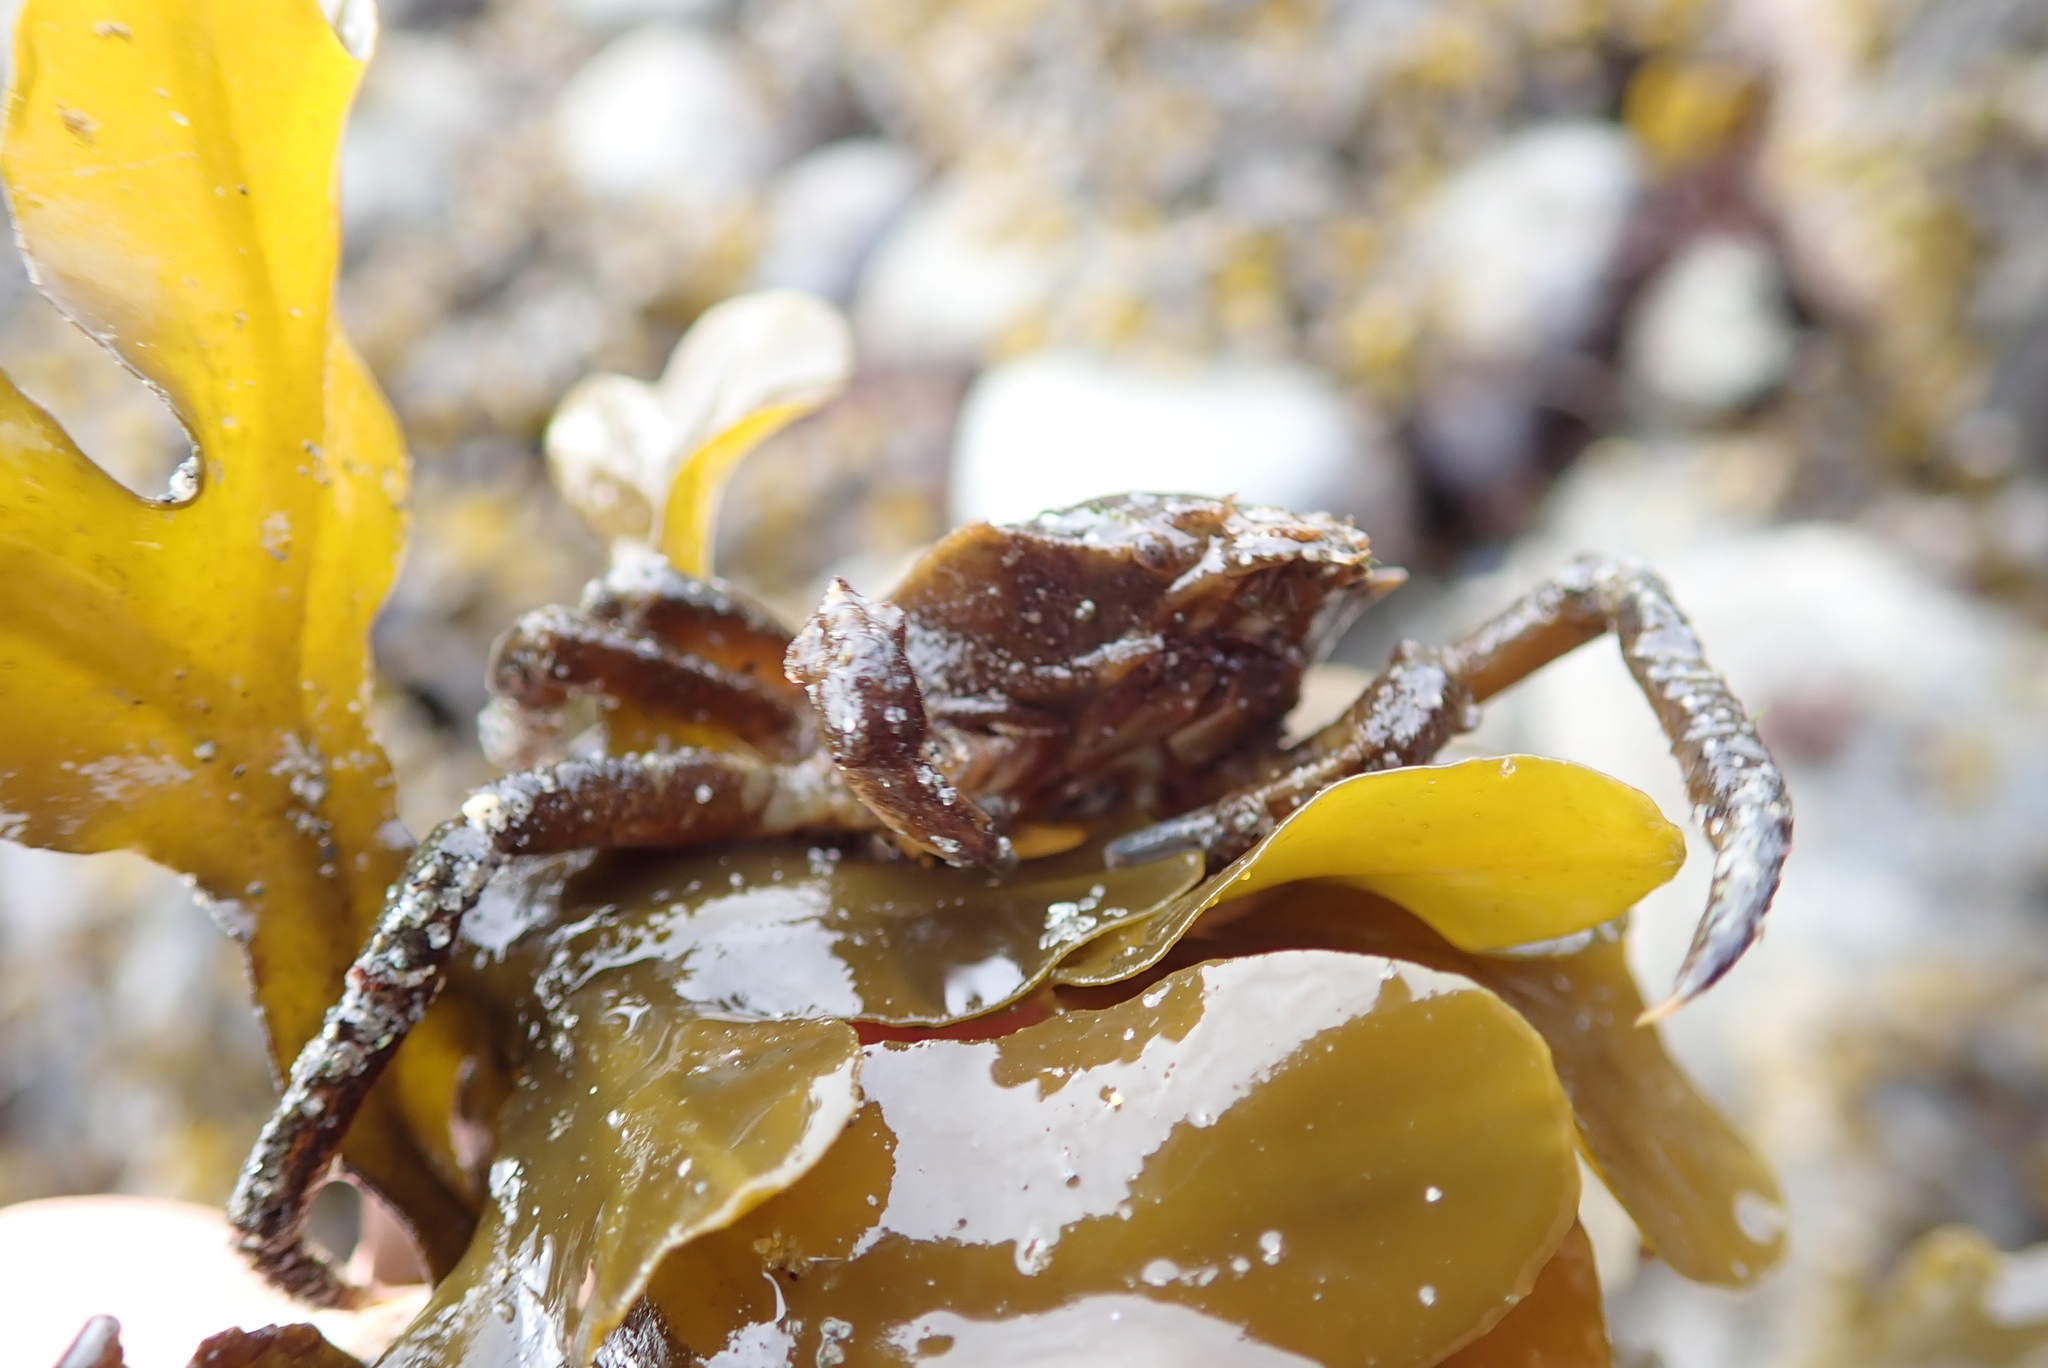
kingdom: Animalia
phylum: Arthropoda
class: Malacostraca
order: Decapoda
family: Epialtidae
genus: Pugettia
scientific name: Pugettia producta
